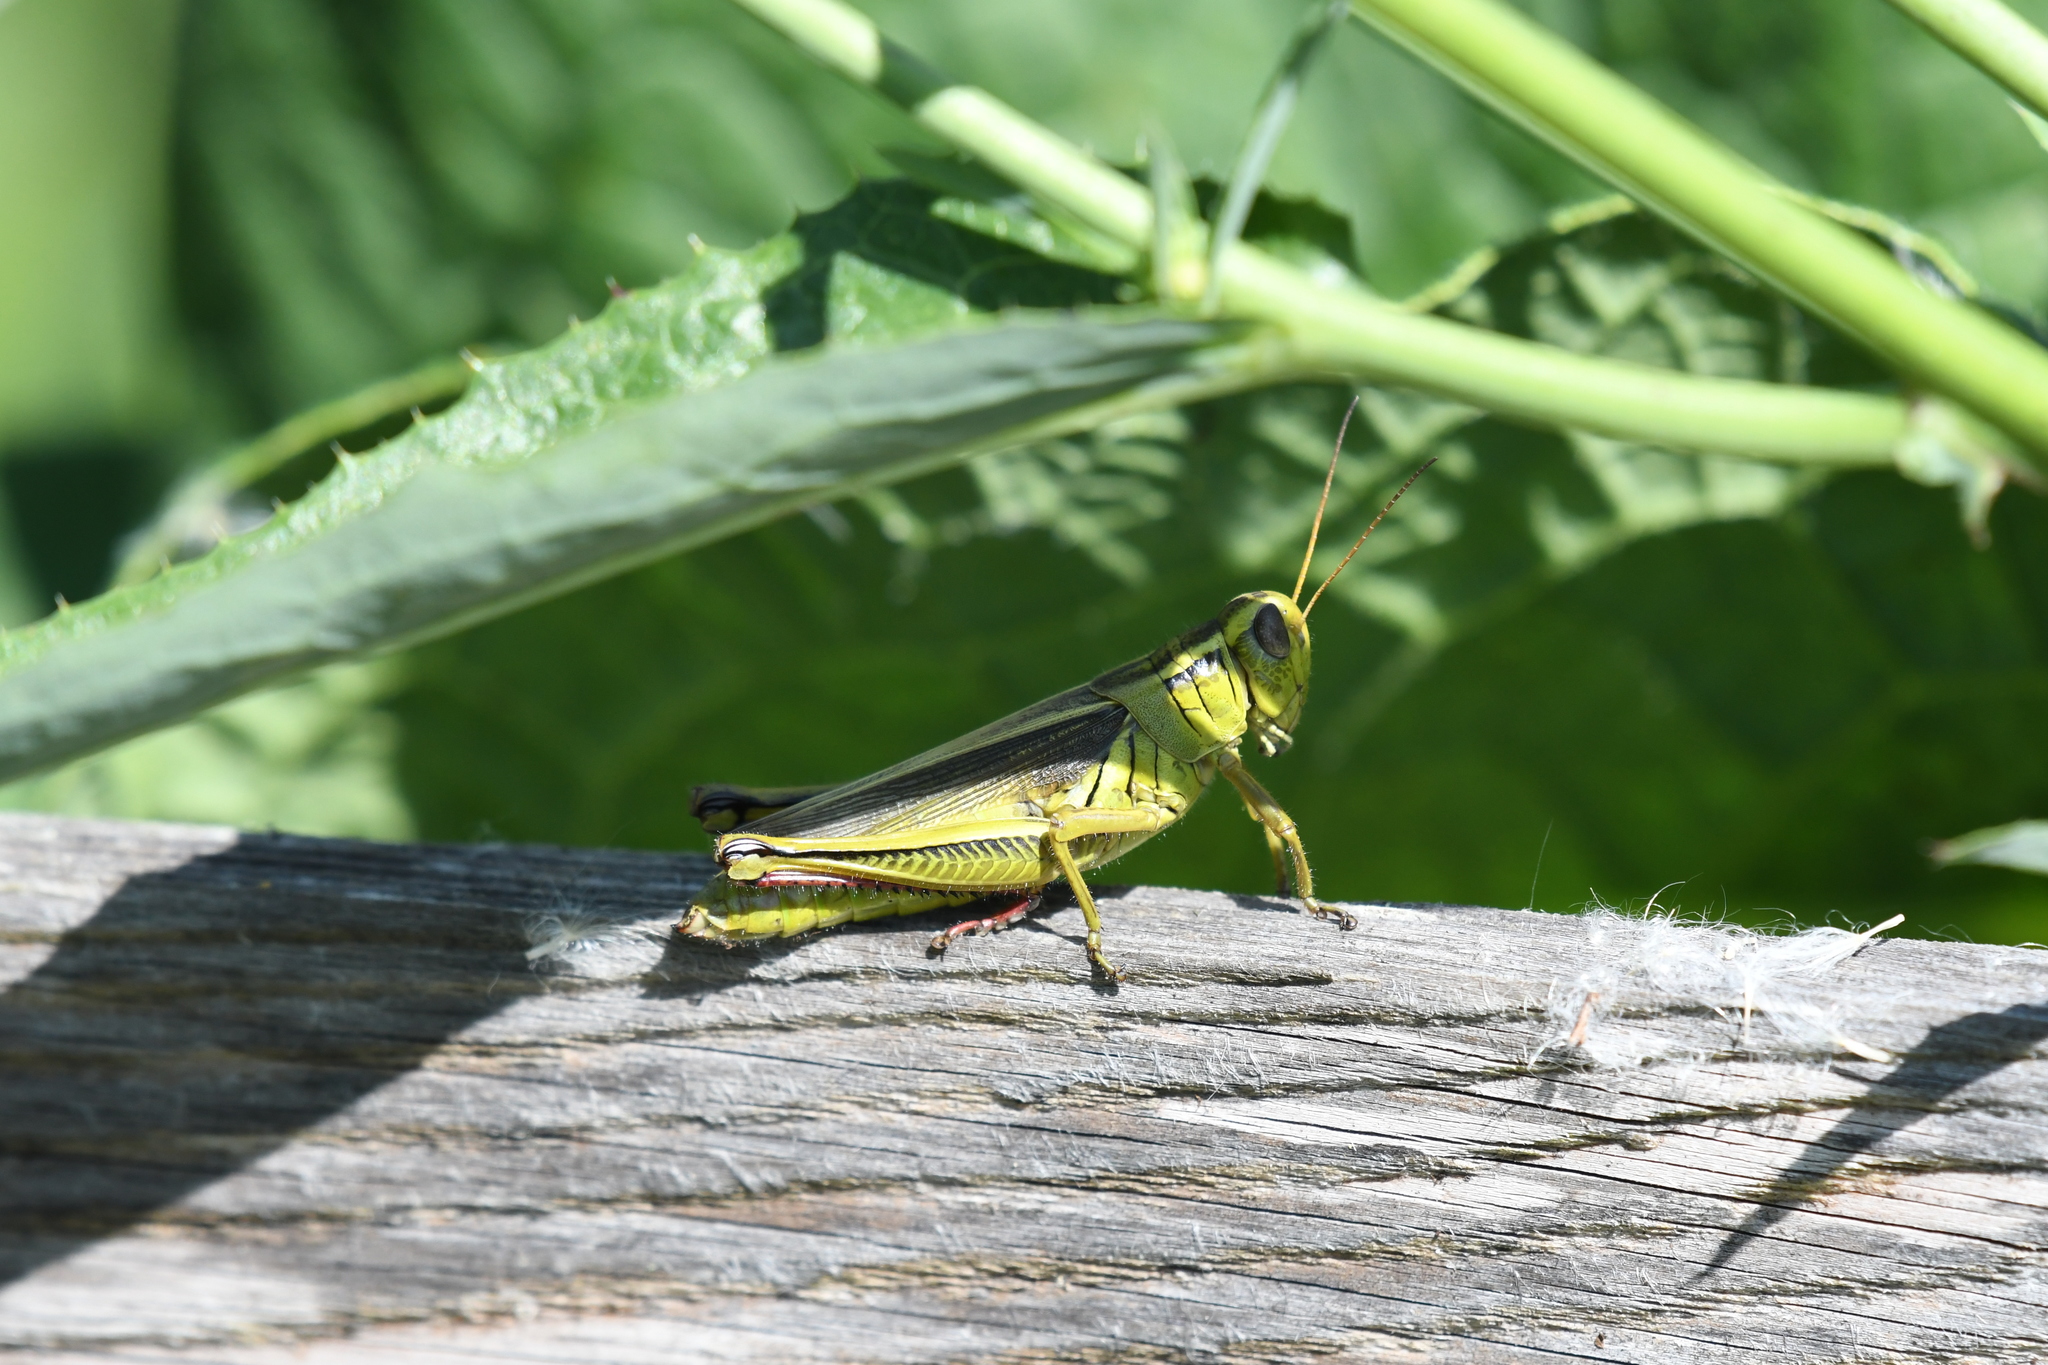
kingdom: Animalia
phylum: Arthropoda
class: Insecta
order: Orthoptera
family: Acrididae
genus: Melanoplus
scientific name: Melanoplus bivittatus
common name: Two-striped grasshopper
